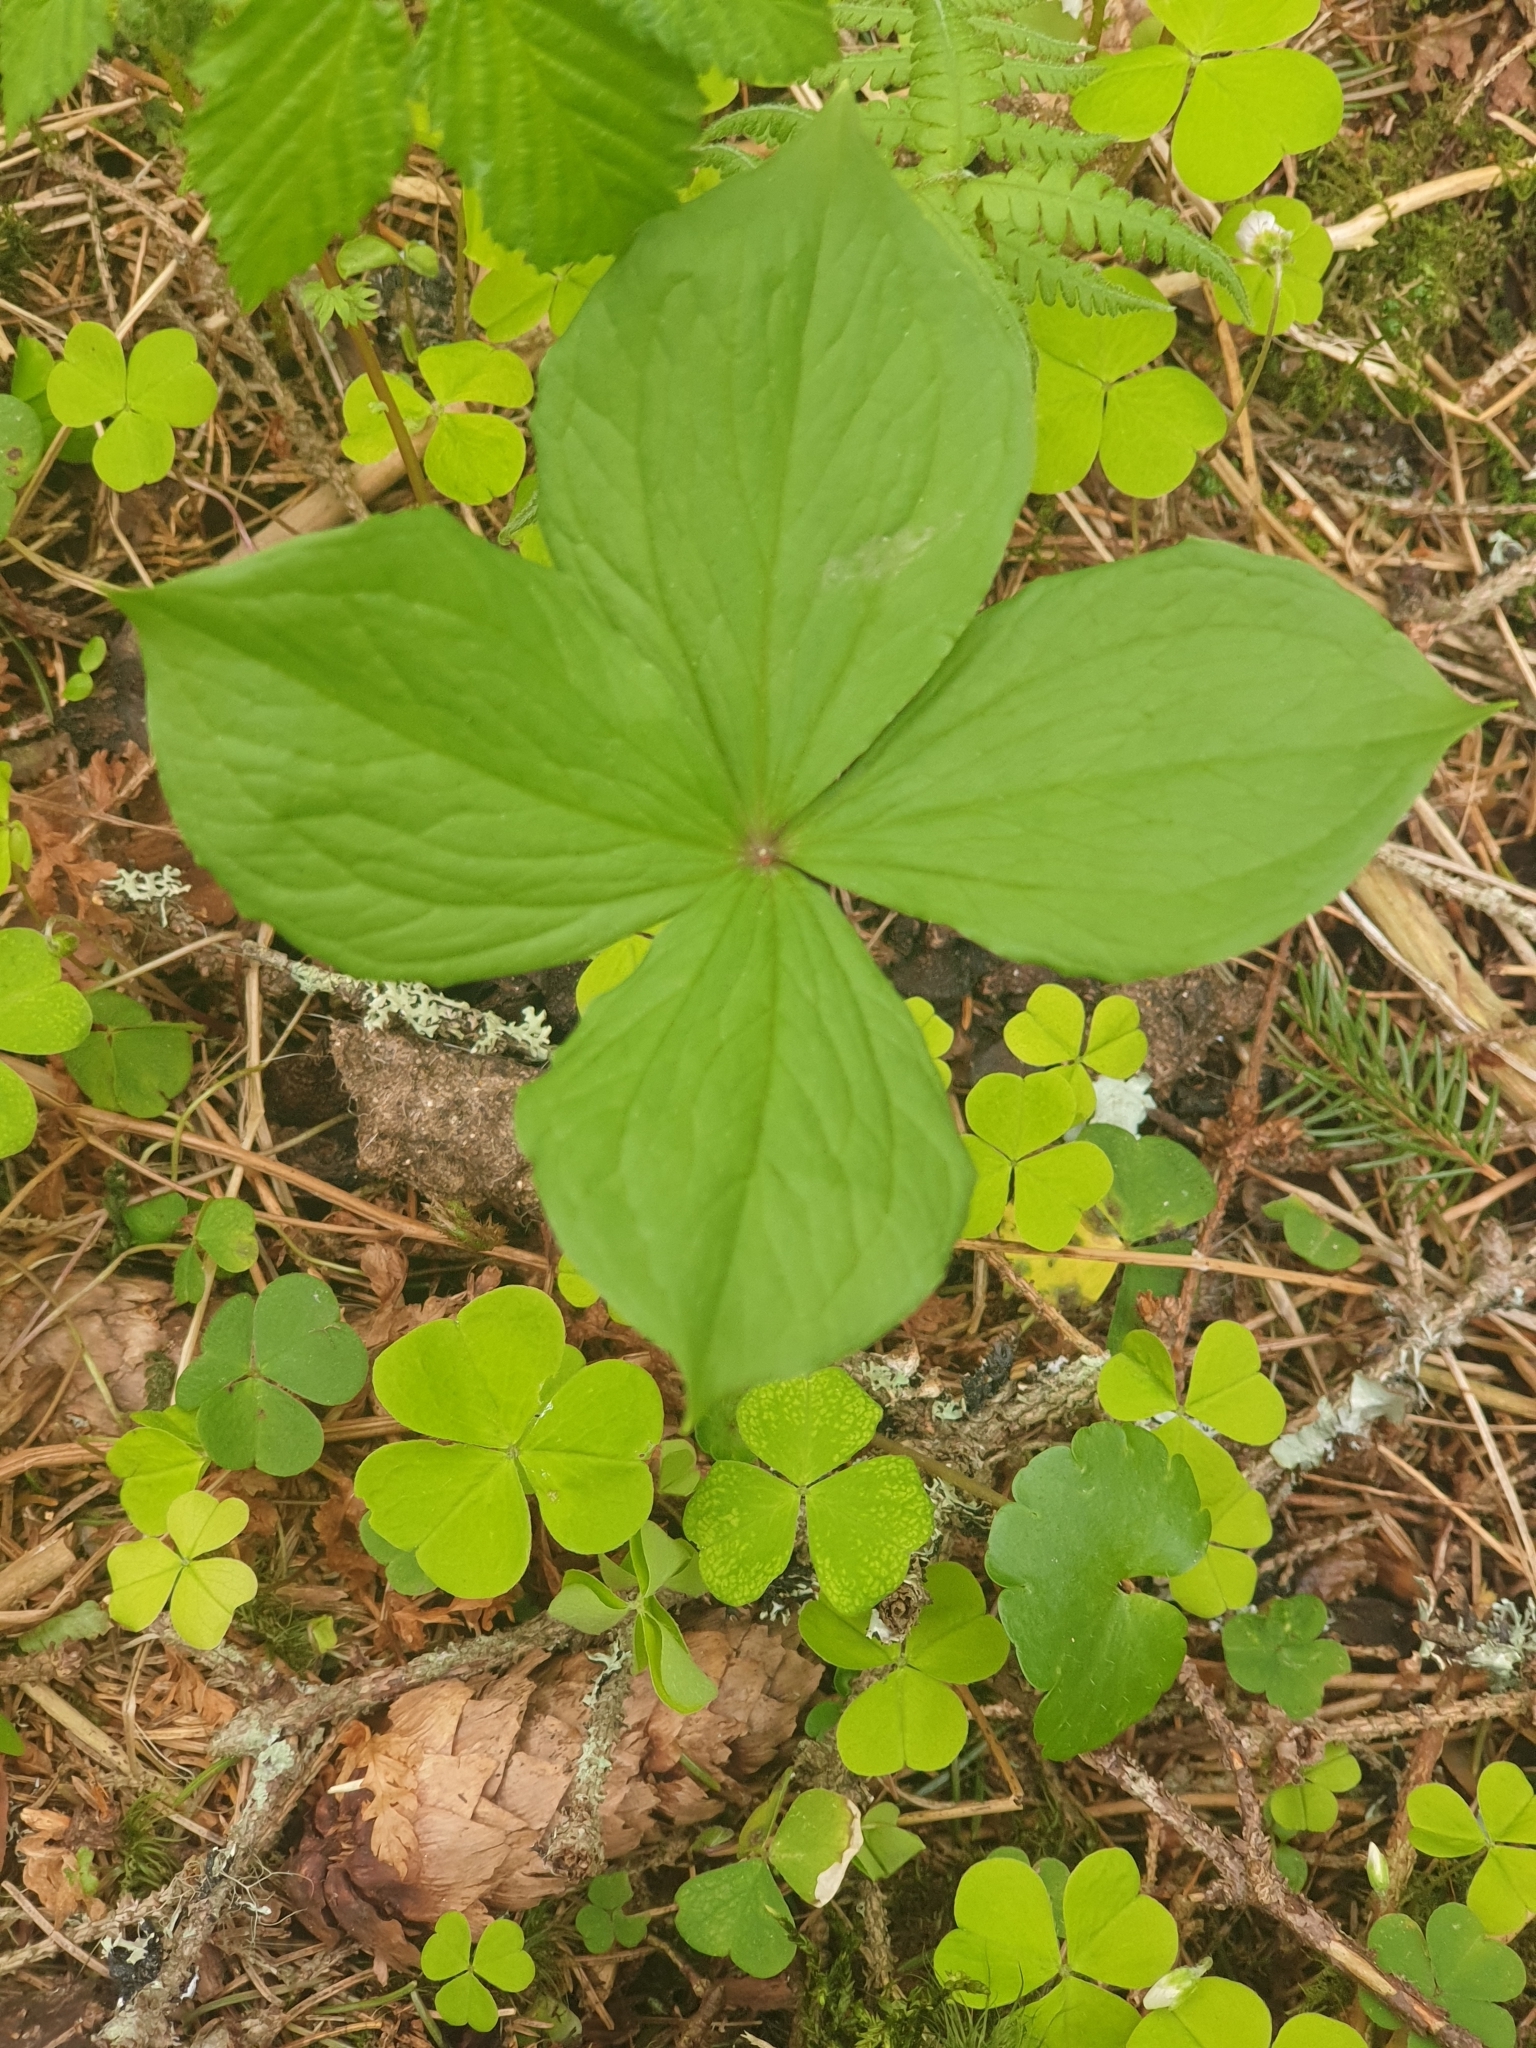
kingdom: Plantae
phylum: Tracheophyta
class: Liliopsida
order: Liliales
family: Melanthiaceae
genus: Paris
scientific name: Paris quadrifolia
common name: Herb-paris
